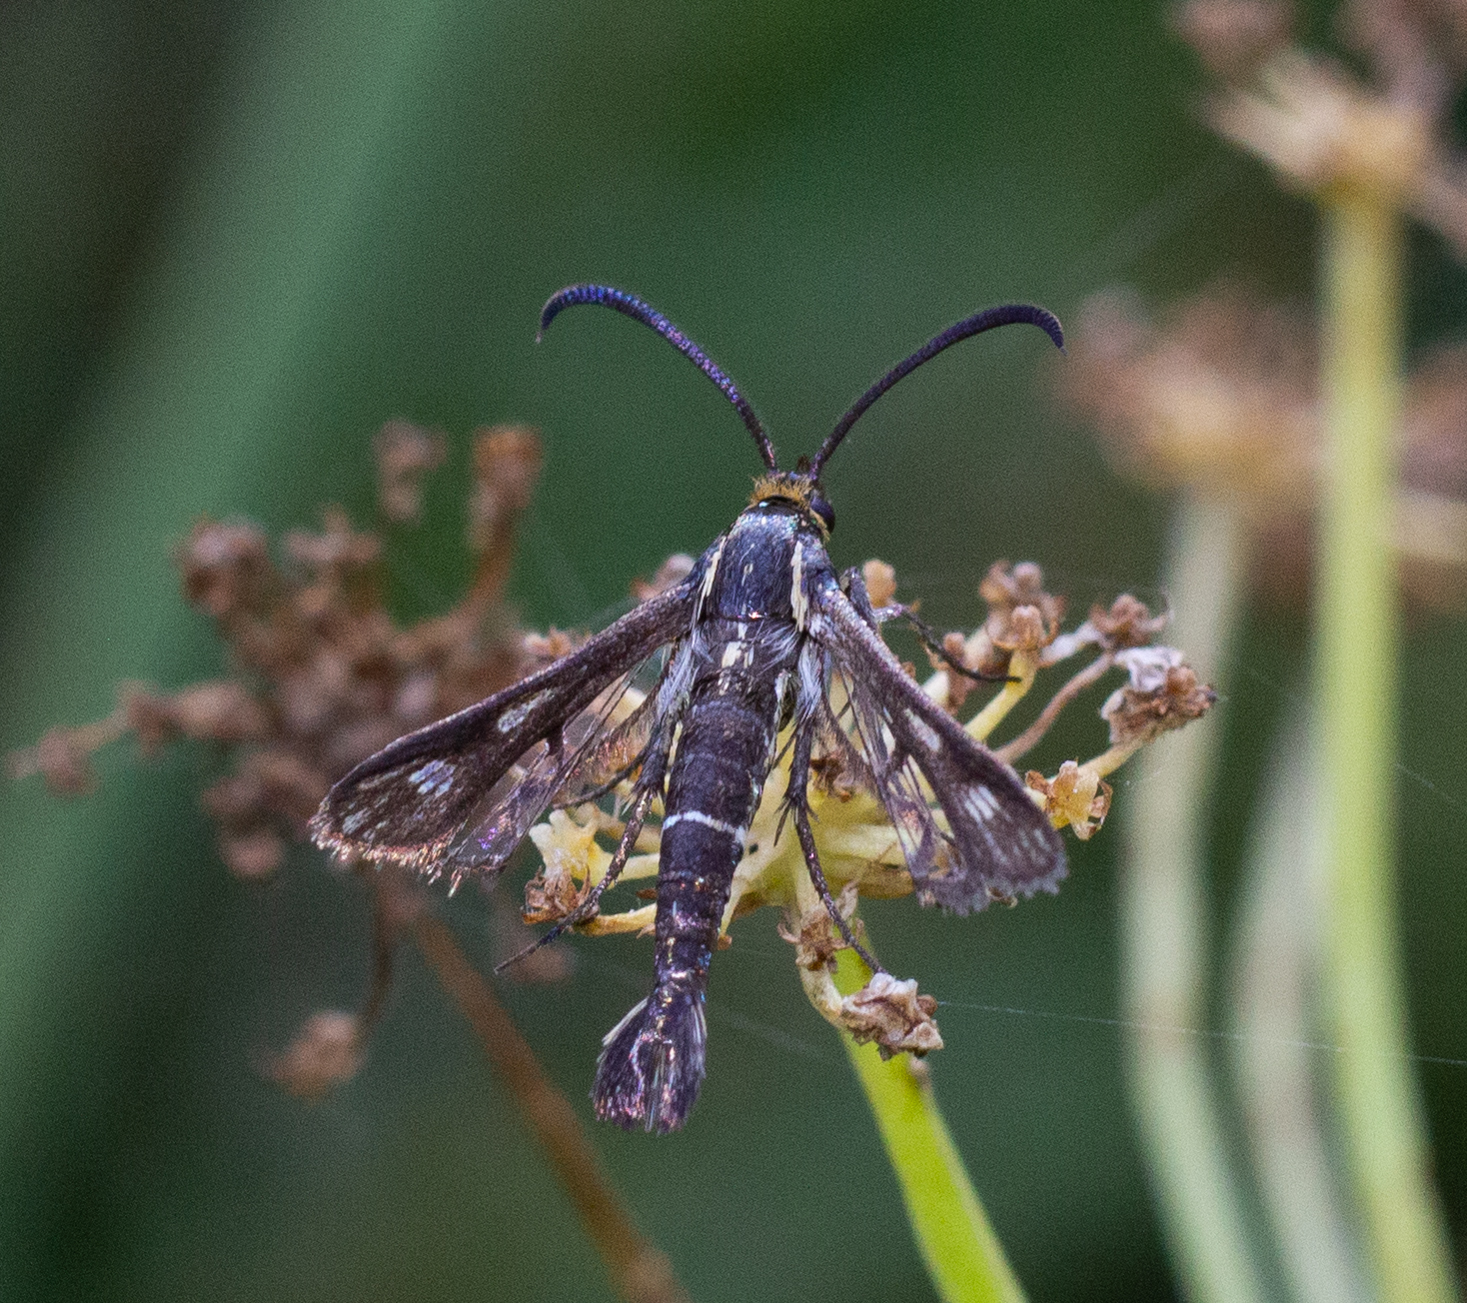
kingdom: Animalia
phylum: Arthropoda
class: Insecta
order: Lepidoptera
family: Sesiidae
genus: Chamaesphecia
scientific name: Chamaesphecia aerifrons
